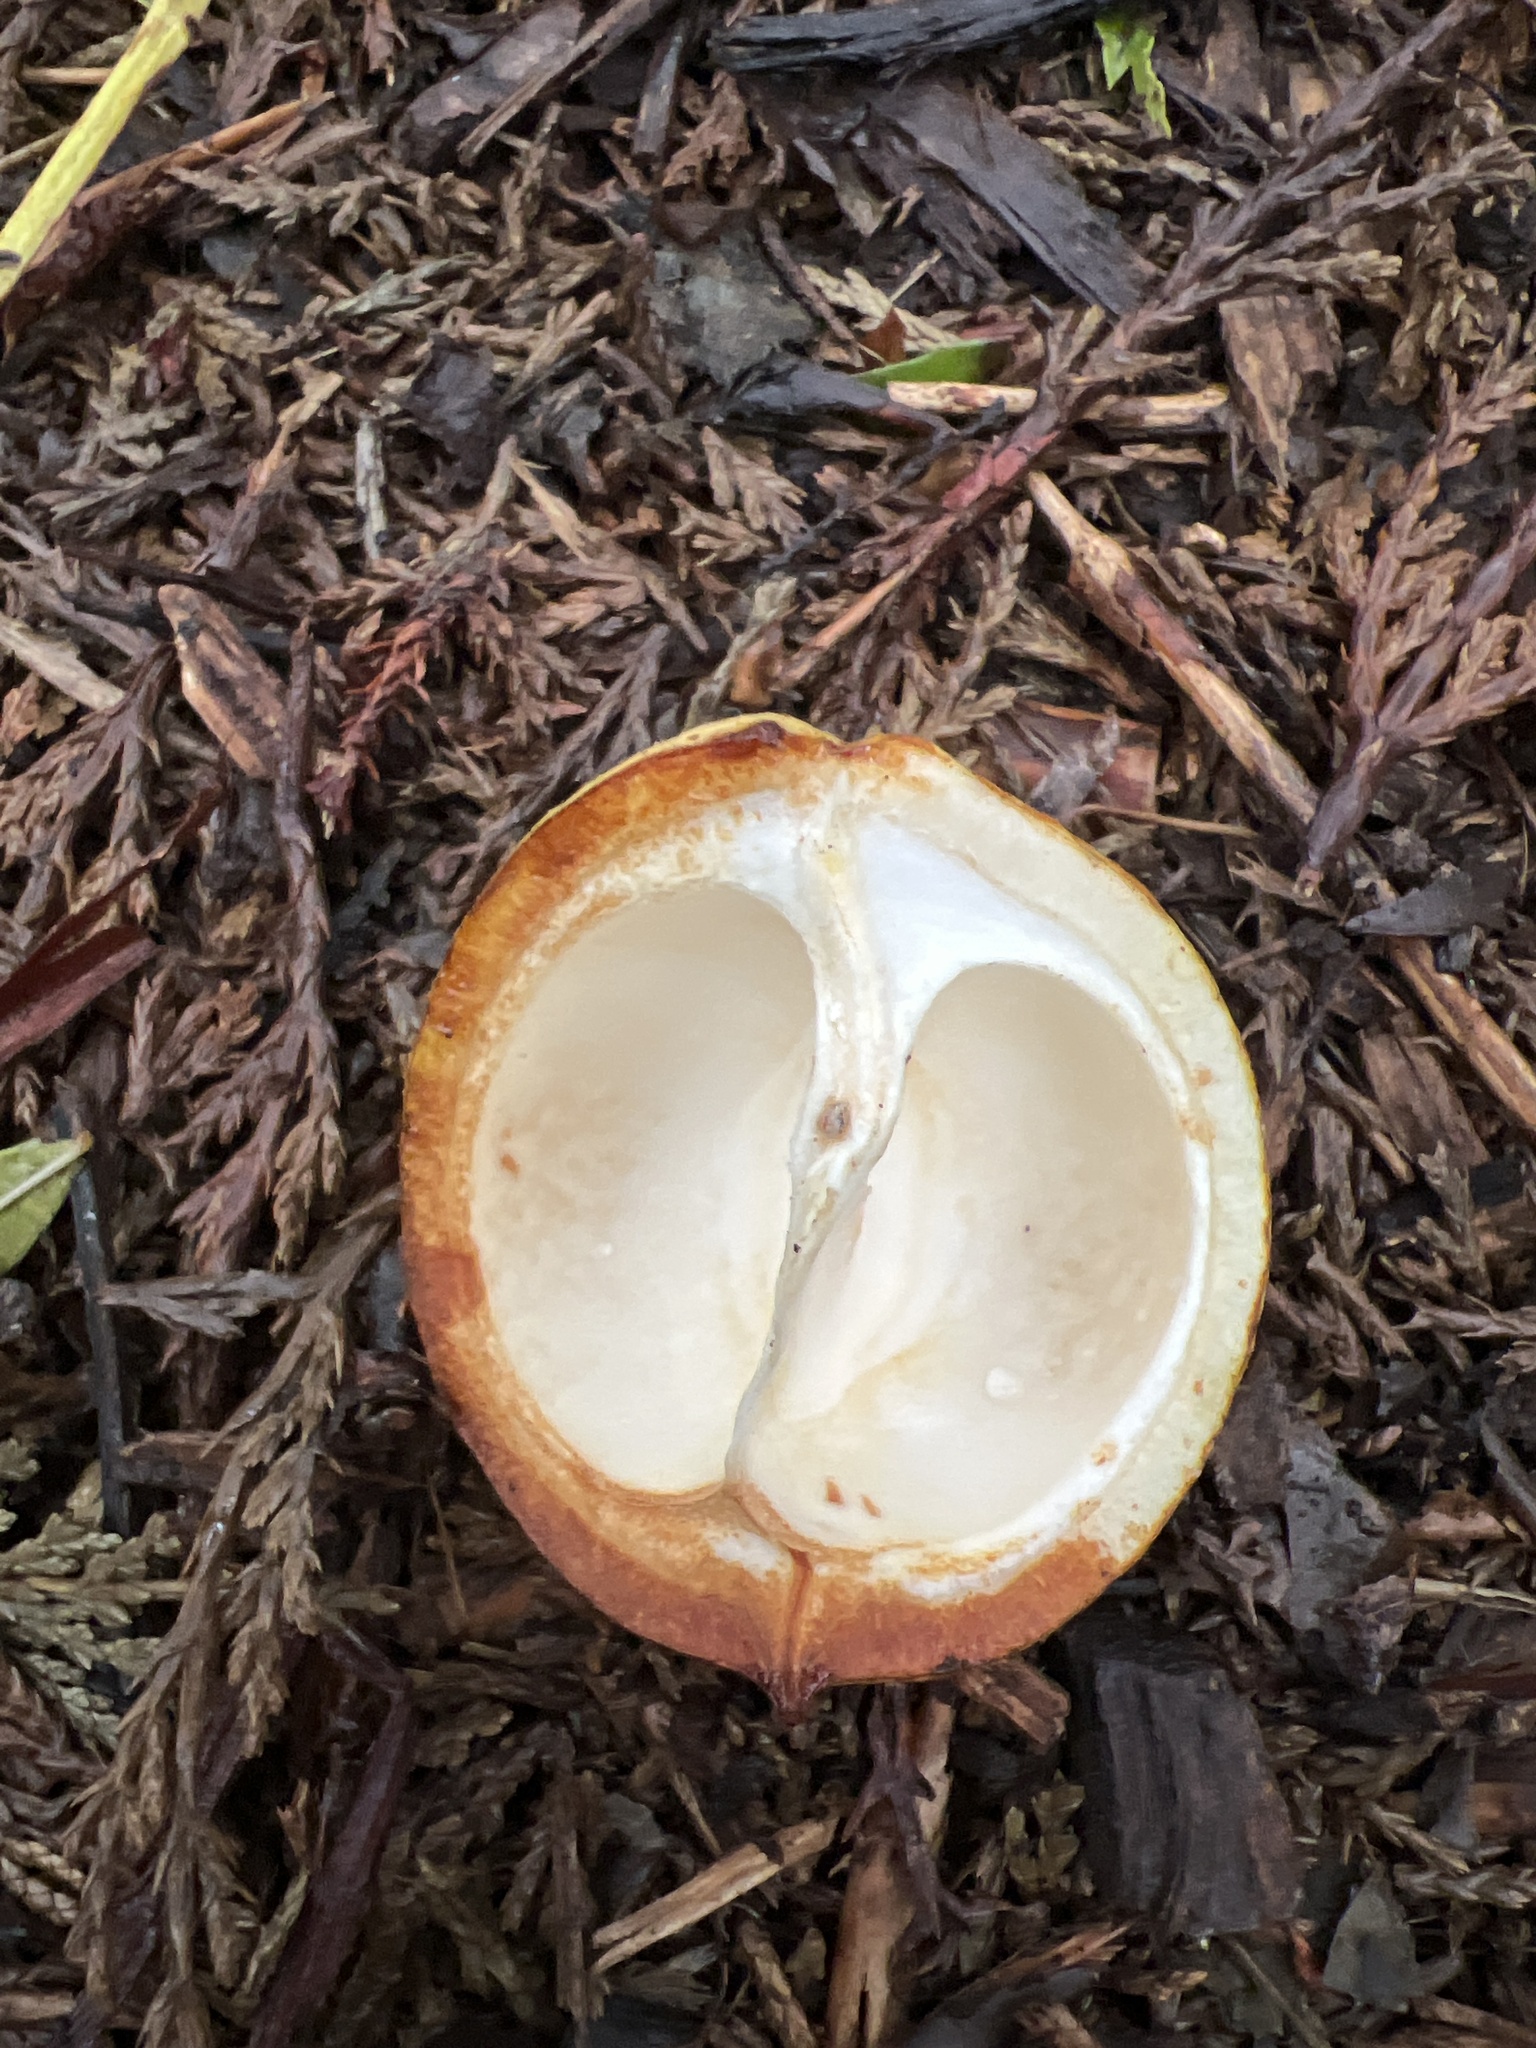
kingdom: Plantae
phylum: Tracheophyta
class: Magnoliopsida
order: Sapindales
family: Sapindaceae
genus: Aesculus
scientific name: Aesculus hippocastanum
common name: Horse-chestnut
